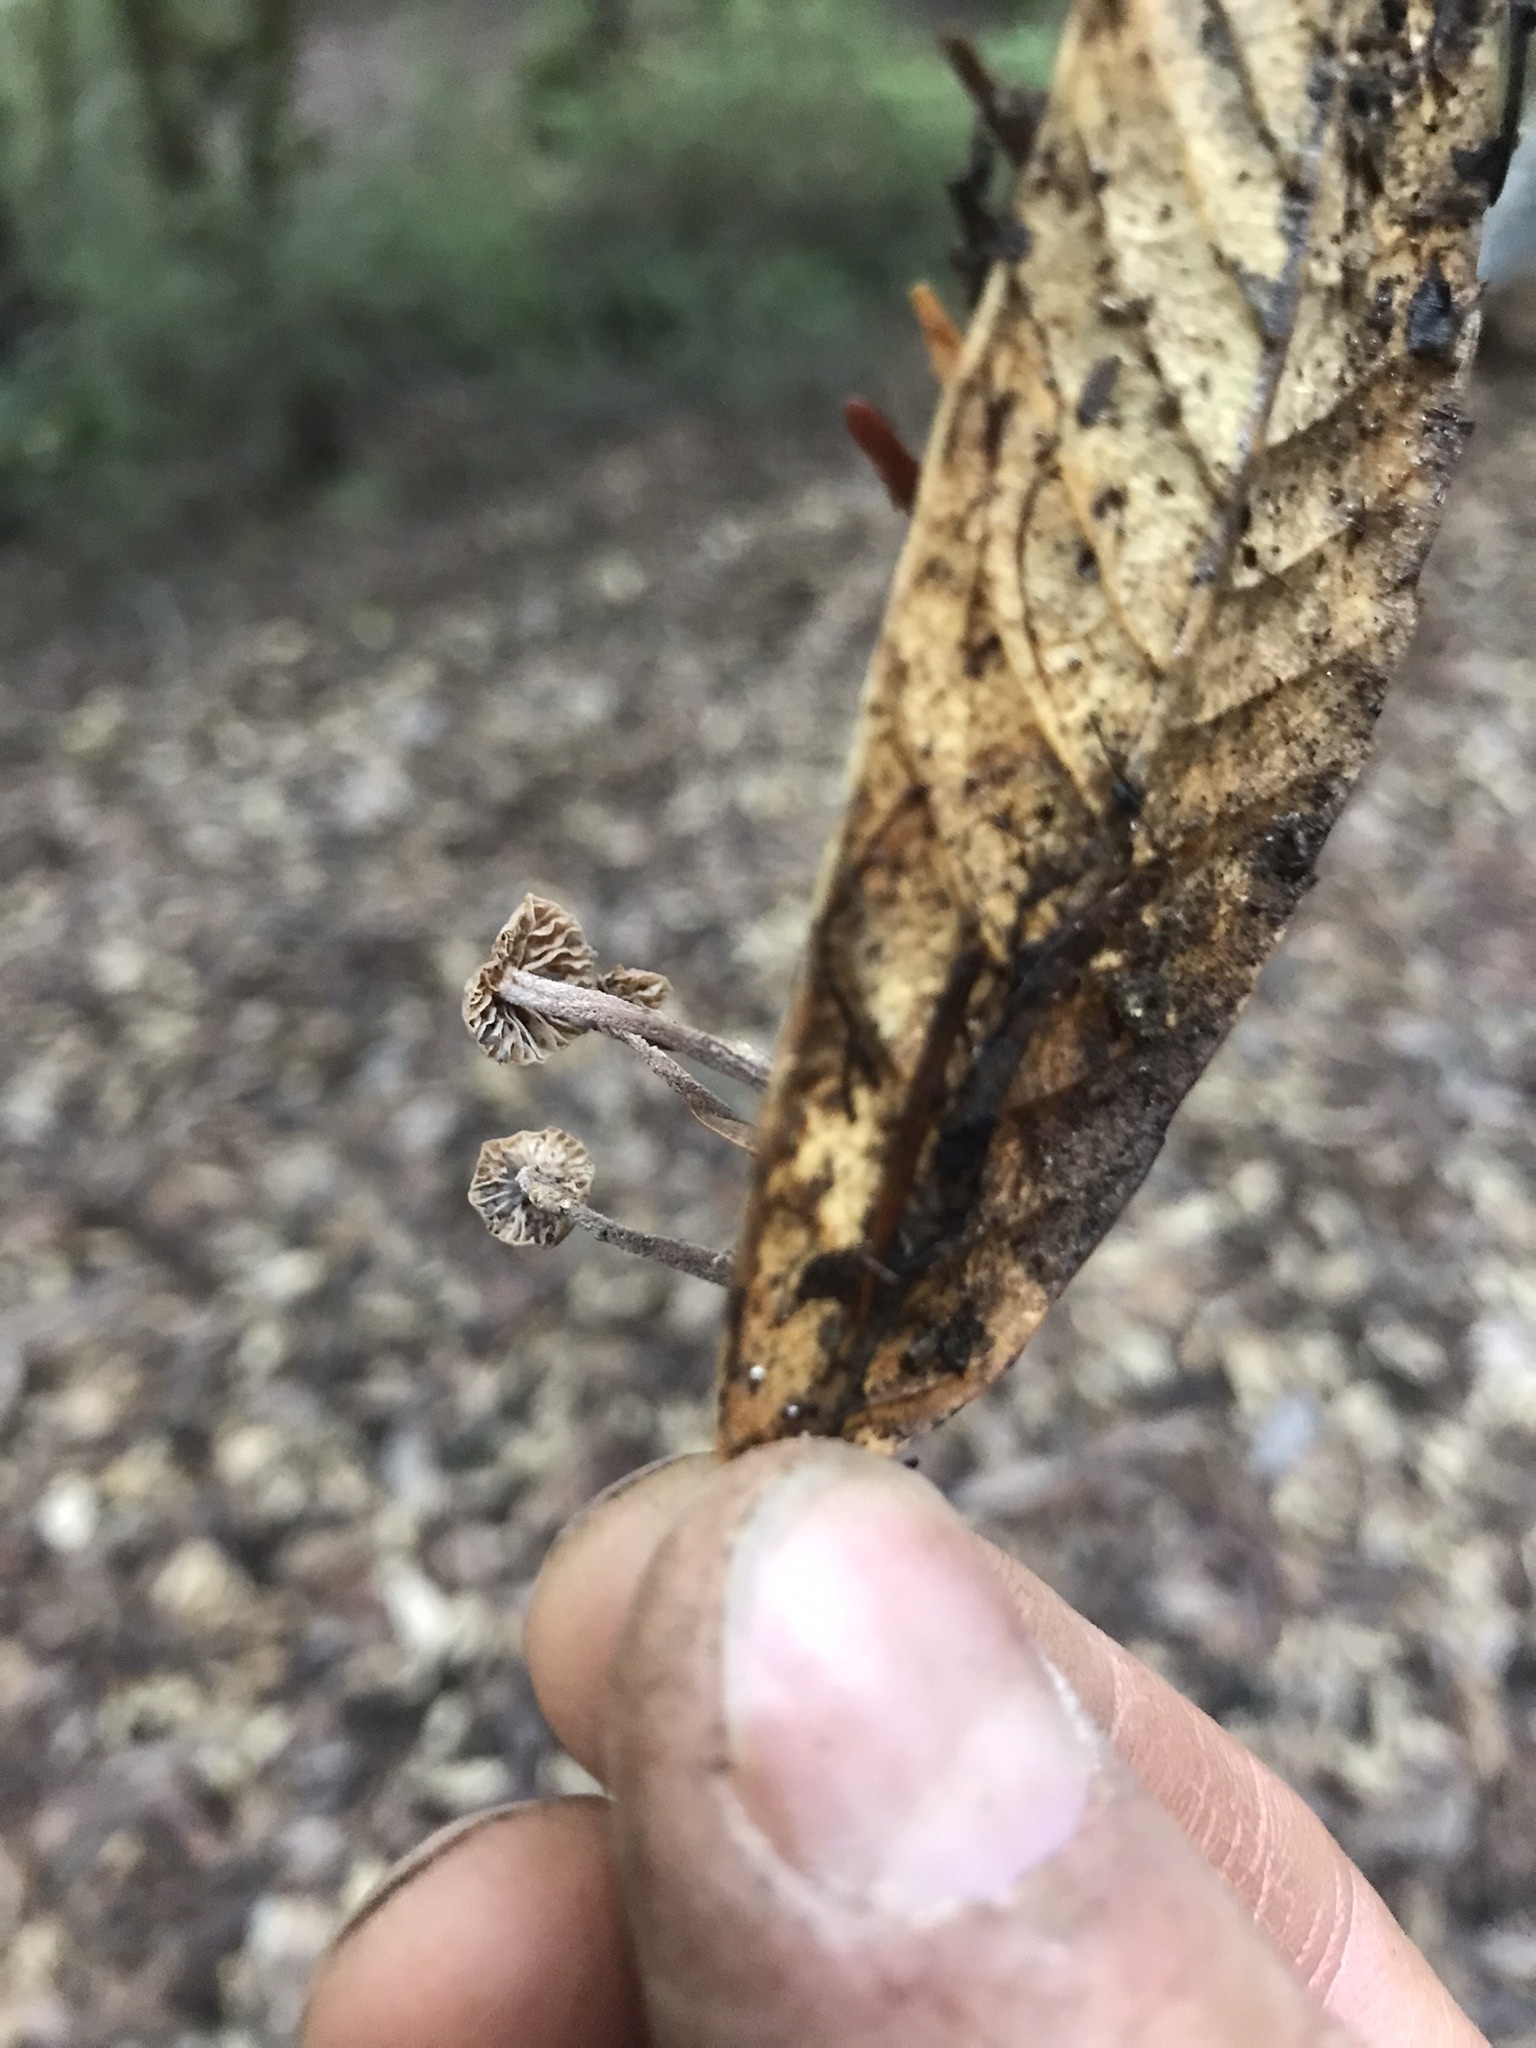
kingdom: Fungi
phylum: Basidiomycota
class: Agaricomycetes
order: Agaricales
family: Omphalotaceae
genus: Collybiopsis
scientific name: Collybiopsis quercophila
